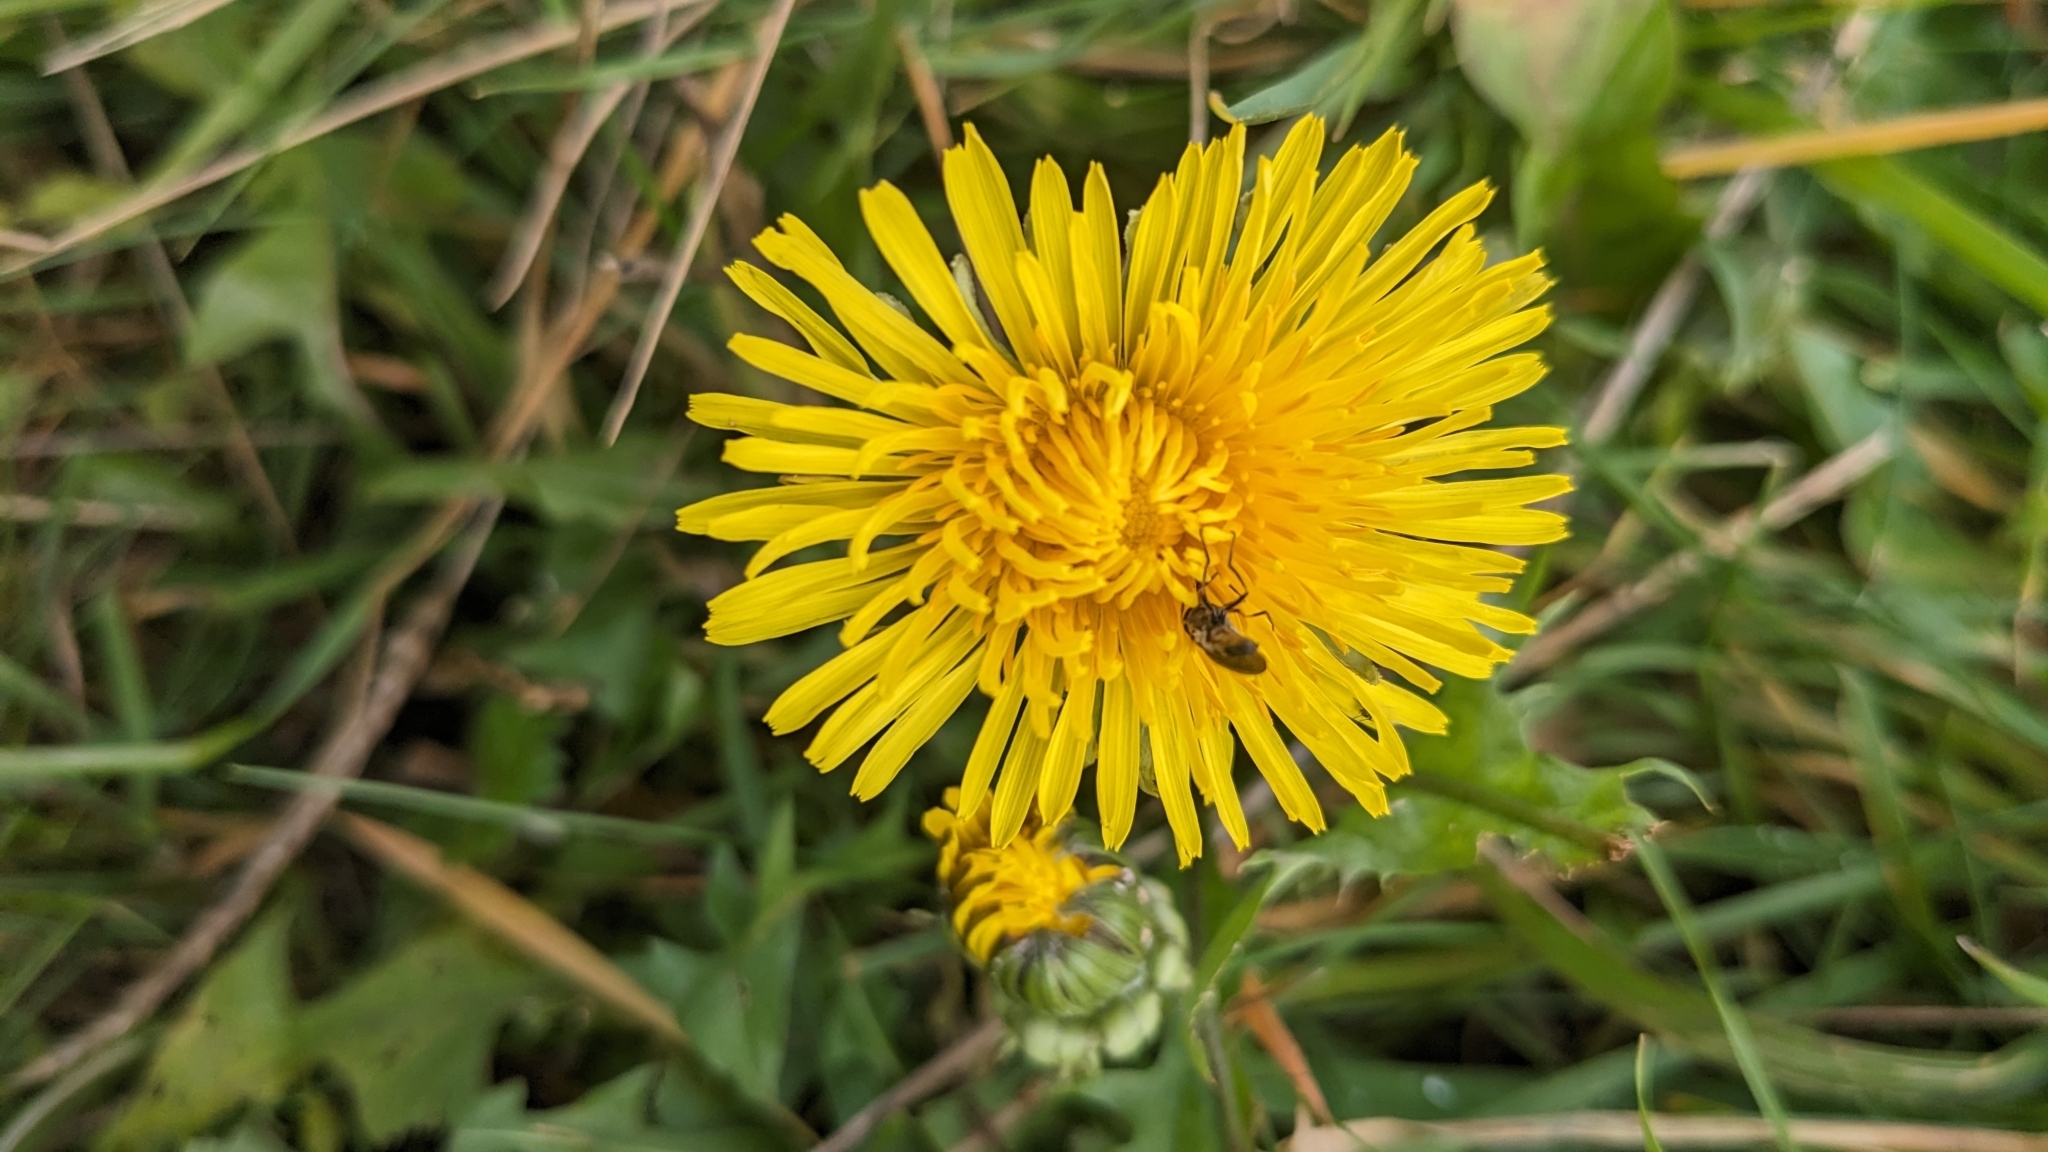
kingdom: Plantae
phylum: Tracheophyta
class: Magnoliopsida
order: Asterales
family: Asteraceae
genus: Taraxacum
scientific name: Taraxacum officinale
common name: Common dandelion
